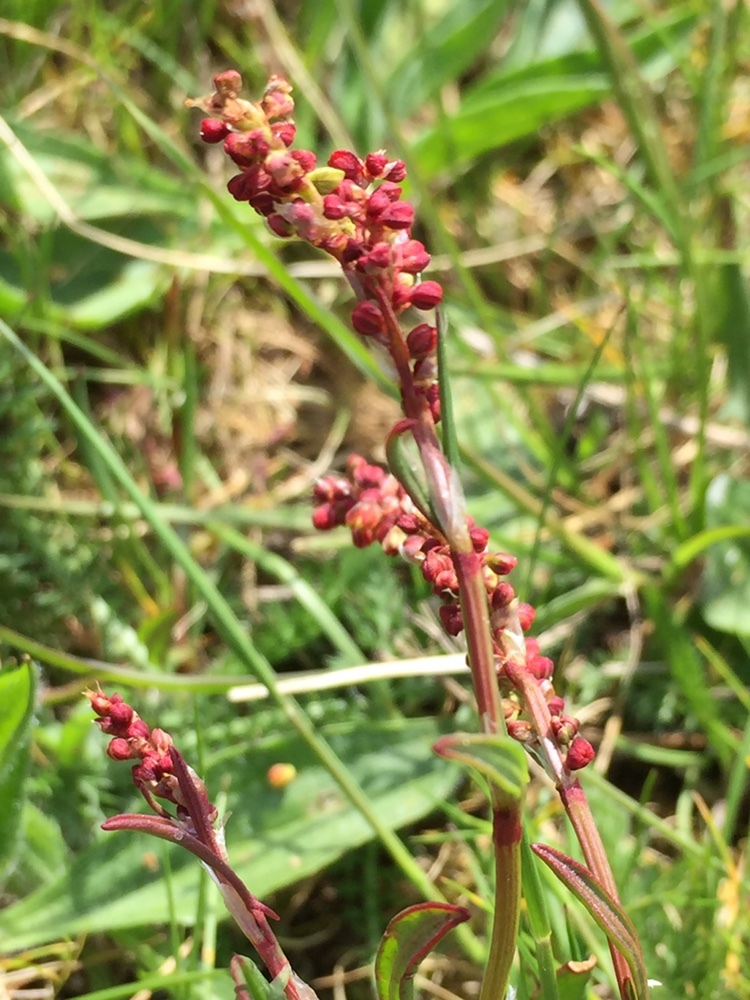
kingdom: Plantae
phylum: Tracheophyta
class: Magnoliopsida
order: Caryophyllales
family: Polygonaceae
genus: Rumex
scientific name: Rumex acetosella
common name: Common sheep sorrel
